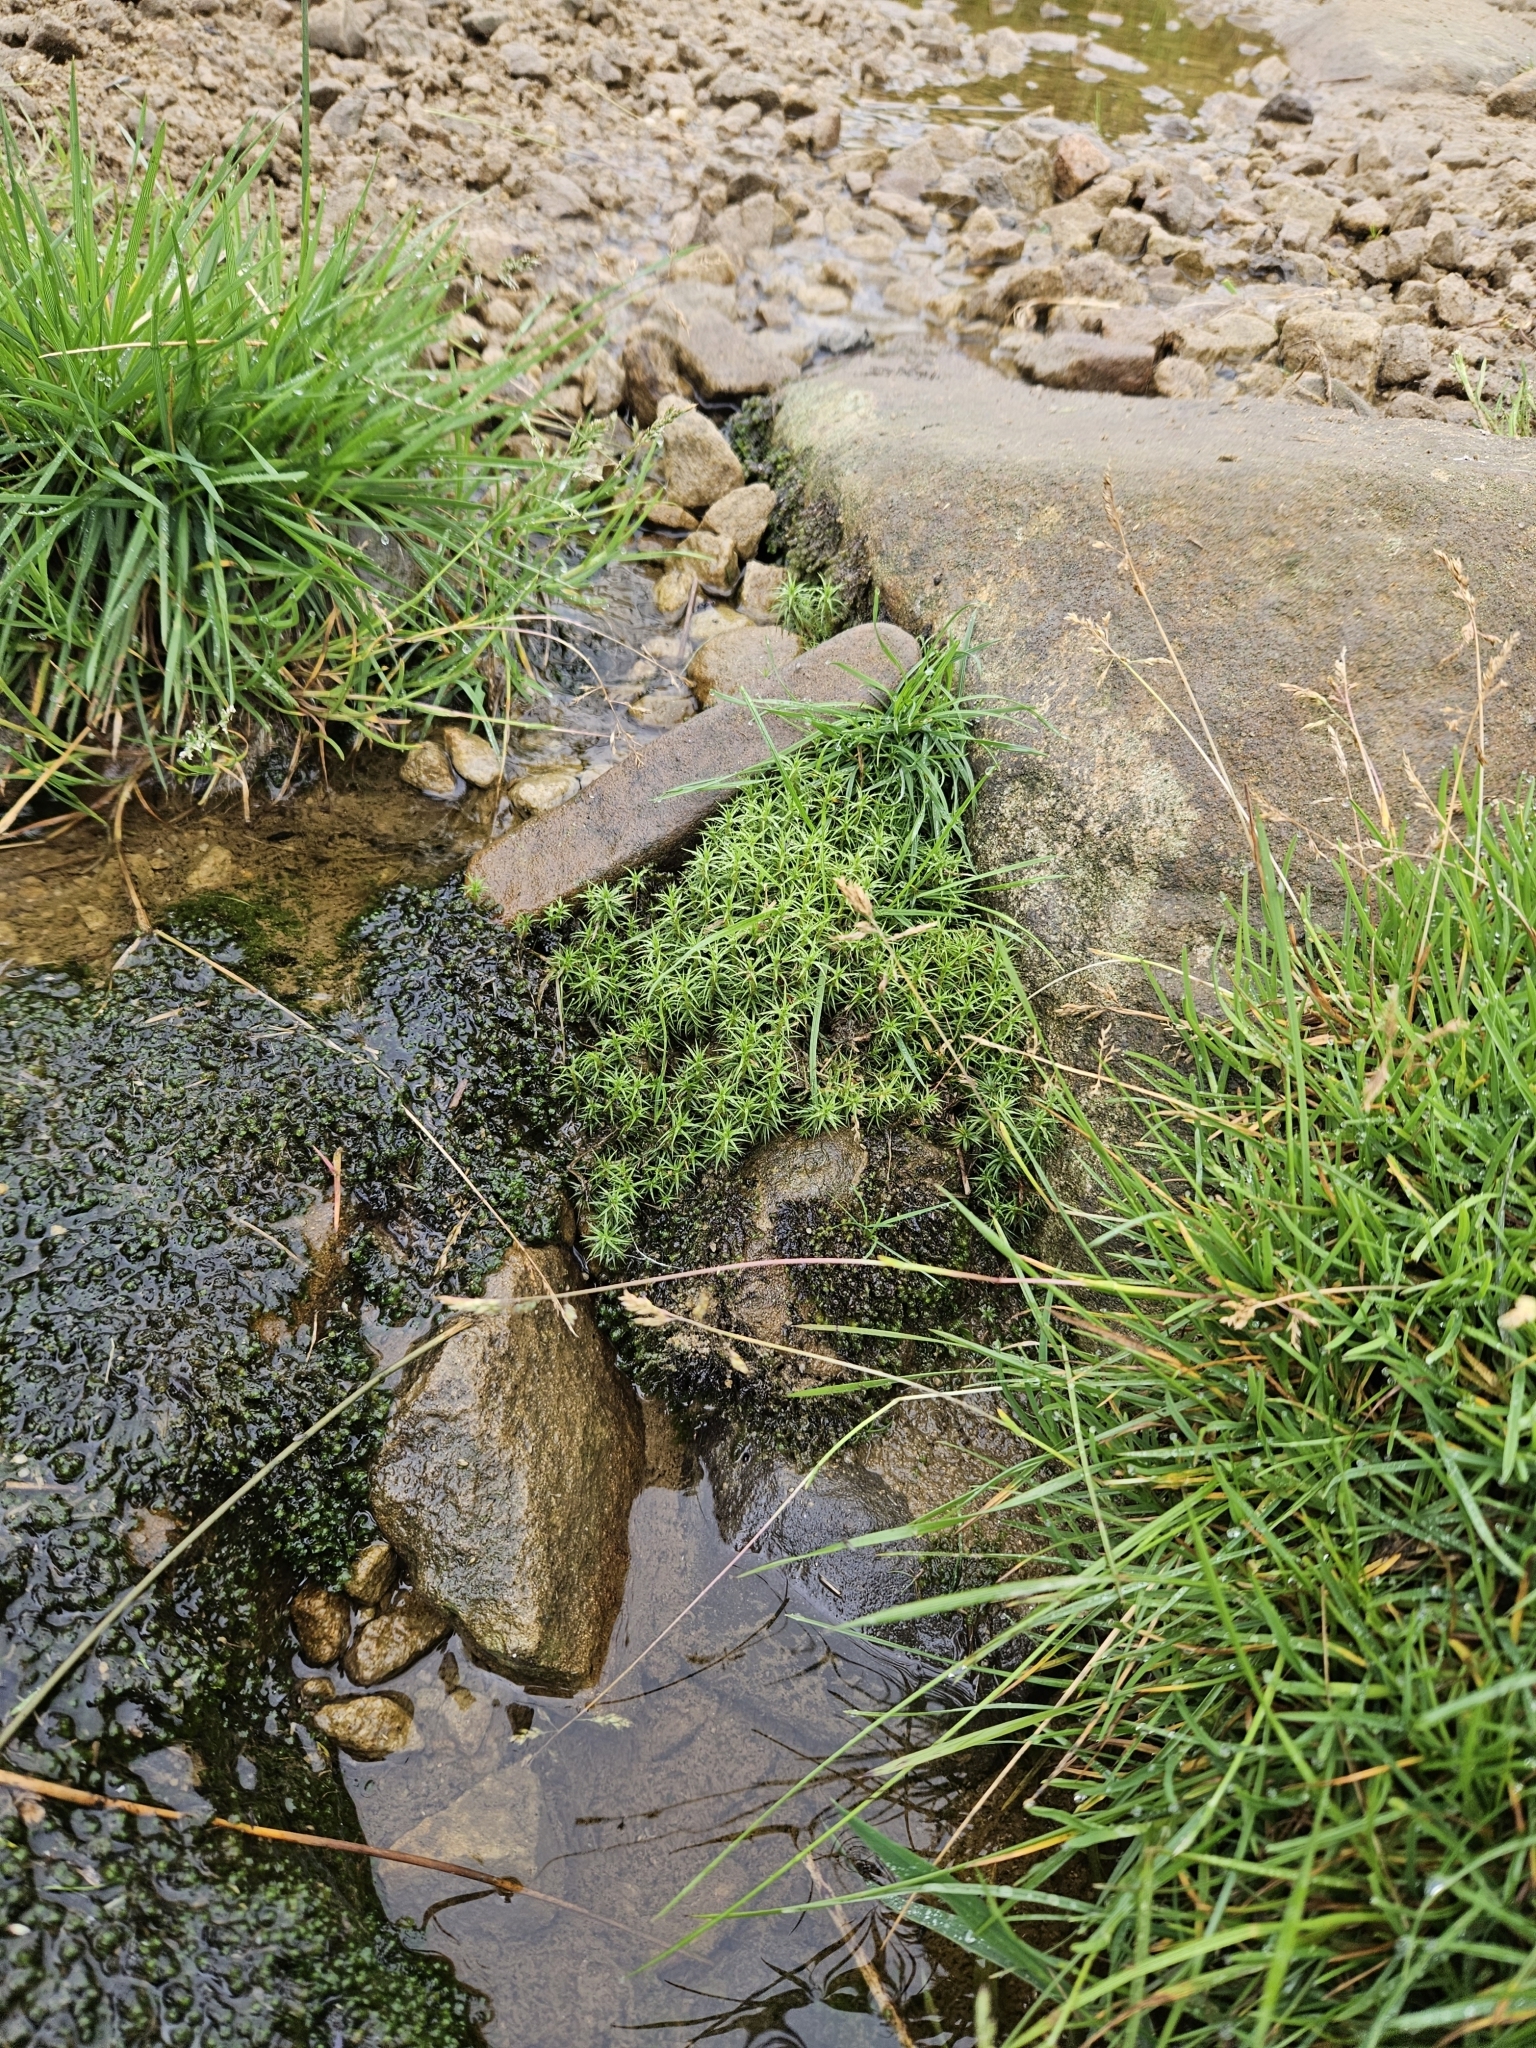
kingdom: Plantae
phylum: Bryophyta
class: Polytrichopsida
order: Polytrichales
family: Polytrichaceae
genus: Polytrichum
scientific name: Polytrichum commune
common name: Common haircap
